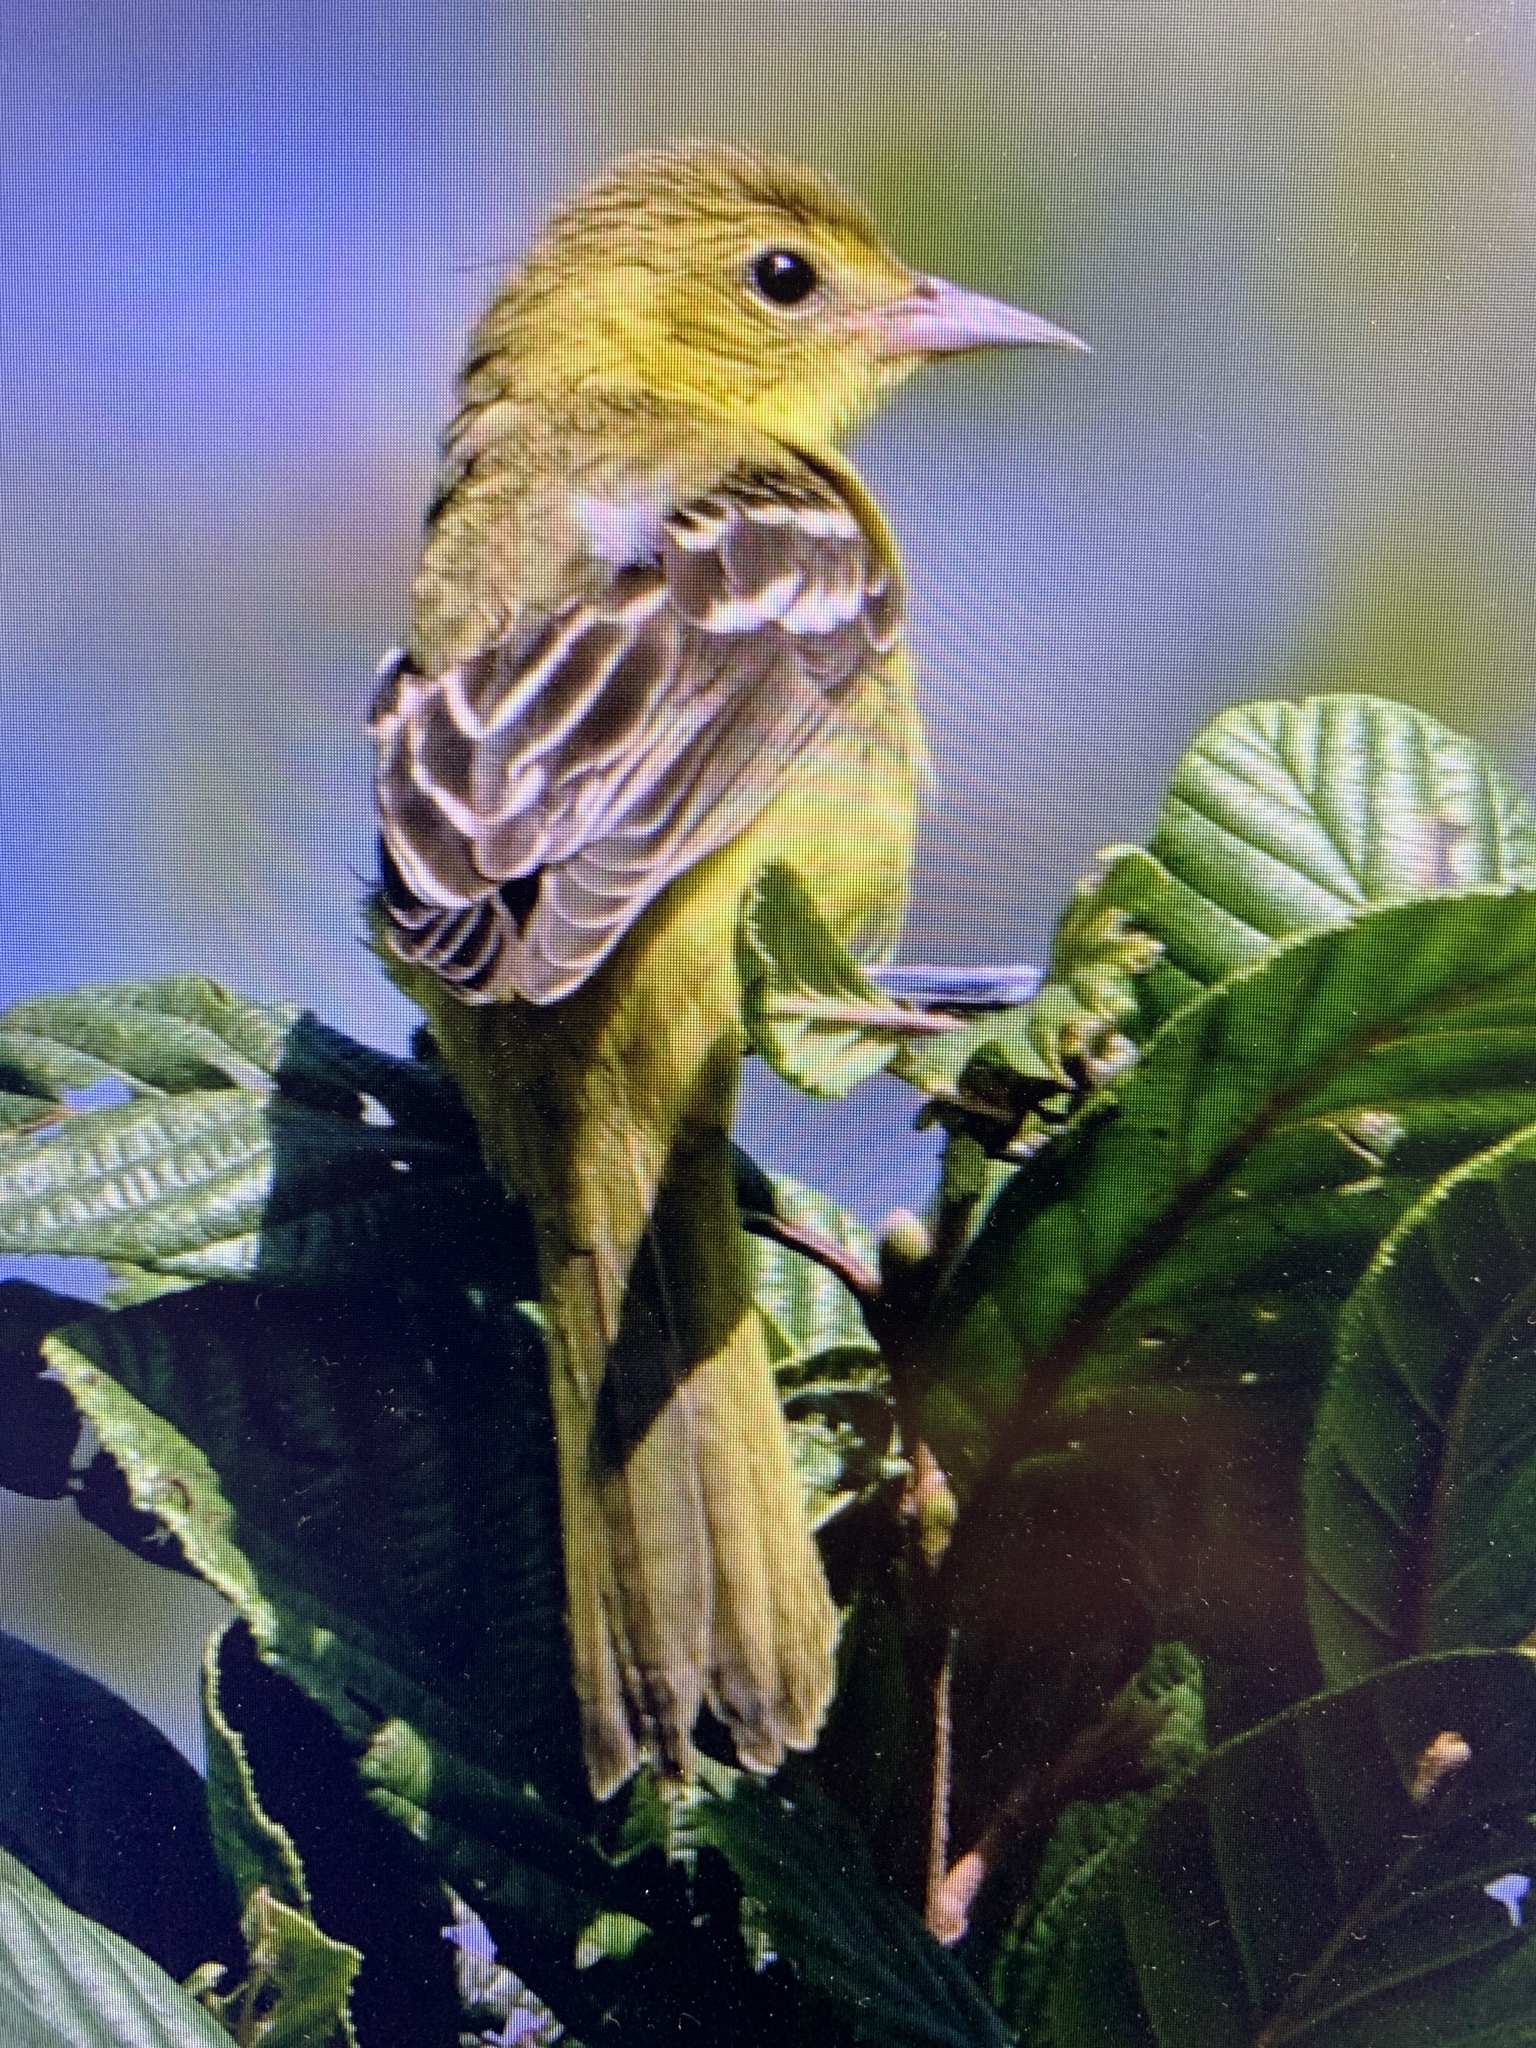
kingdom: Animalia
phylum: Chordata
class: Aves
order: Passeriformes
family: Icteridae
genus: Icterus
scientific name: Icterus spurius
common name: Orchard oriole
